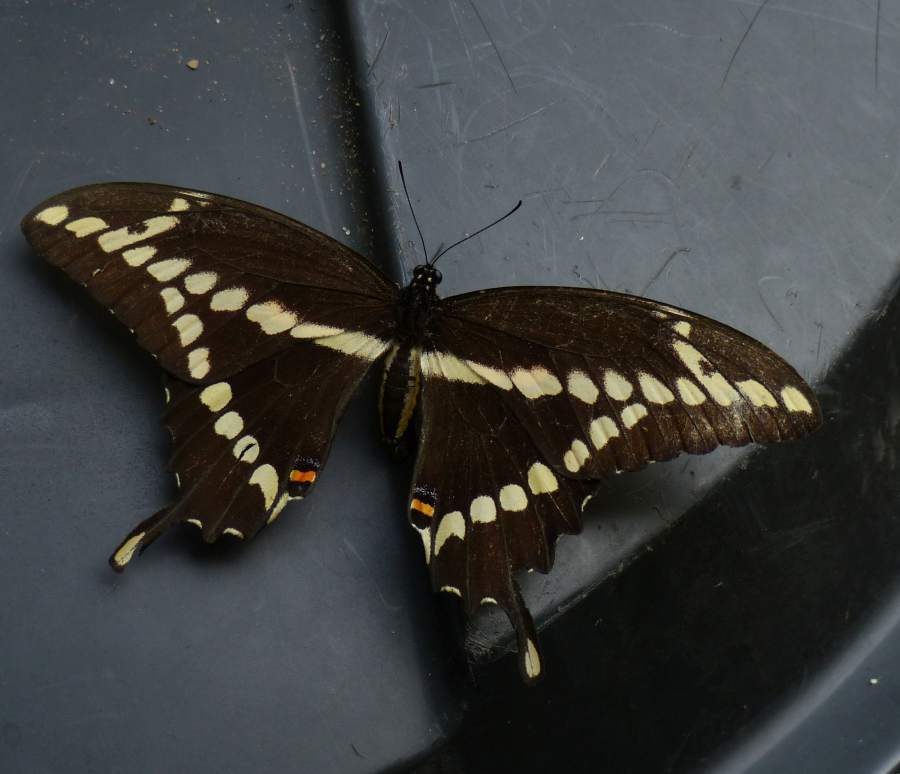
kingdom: Animalia
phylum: Arthropoda
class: Insecta
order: Lepidoptera
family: Papilionidae
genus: Papilio
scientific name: Papilio cresphontes
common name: Giant swallowtail
